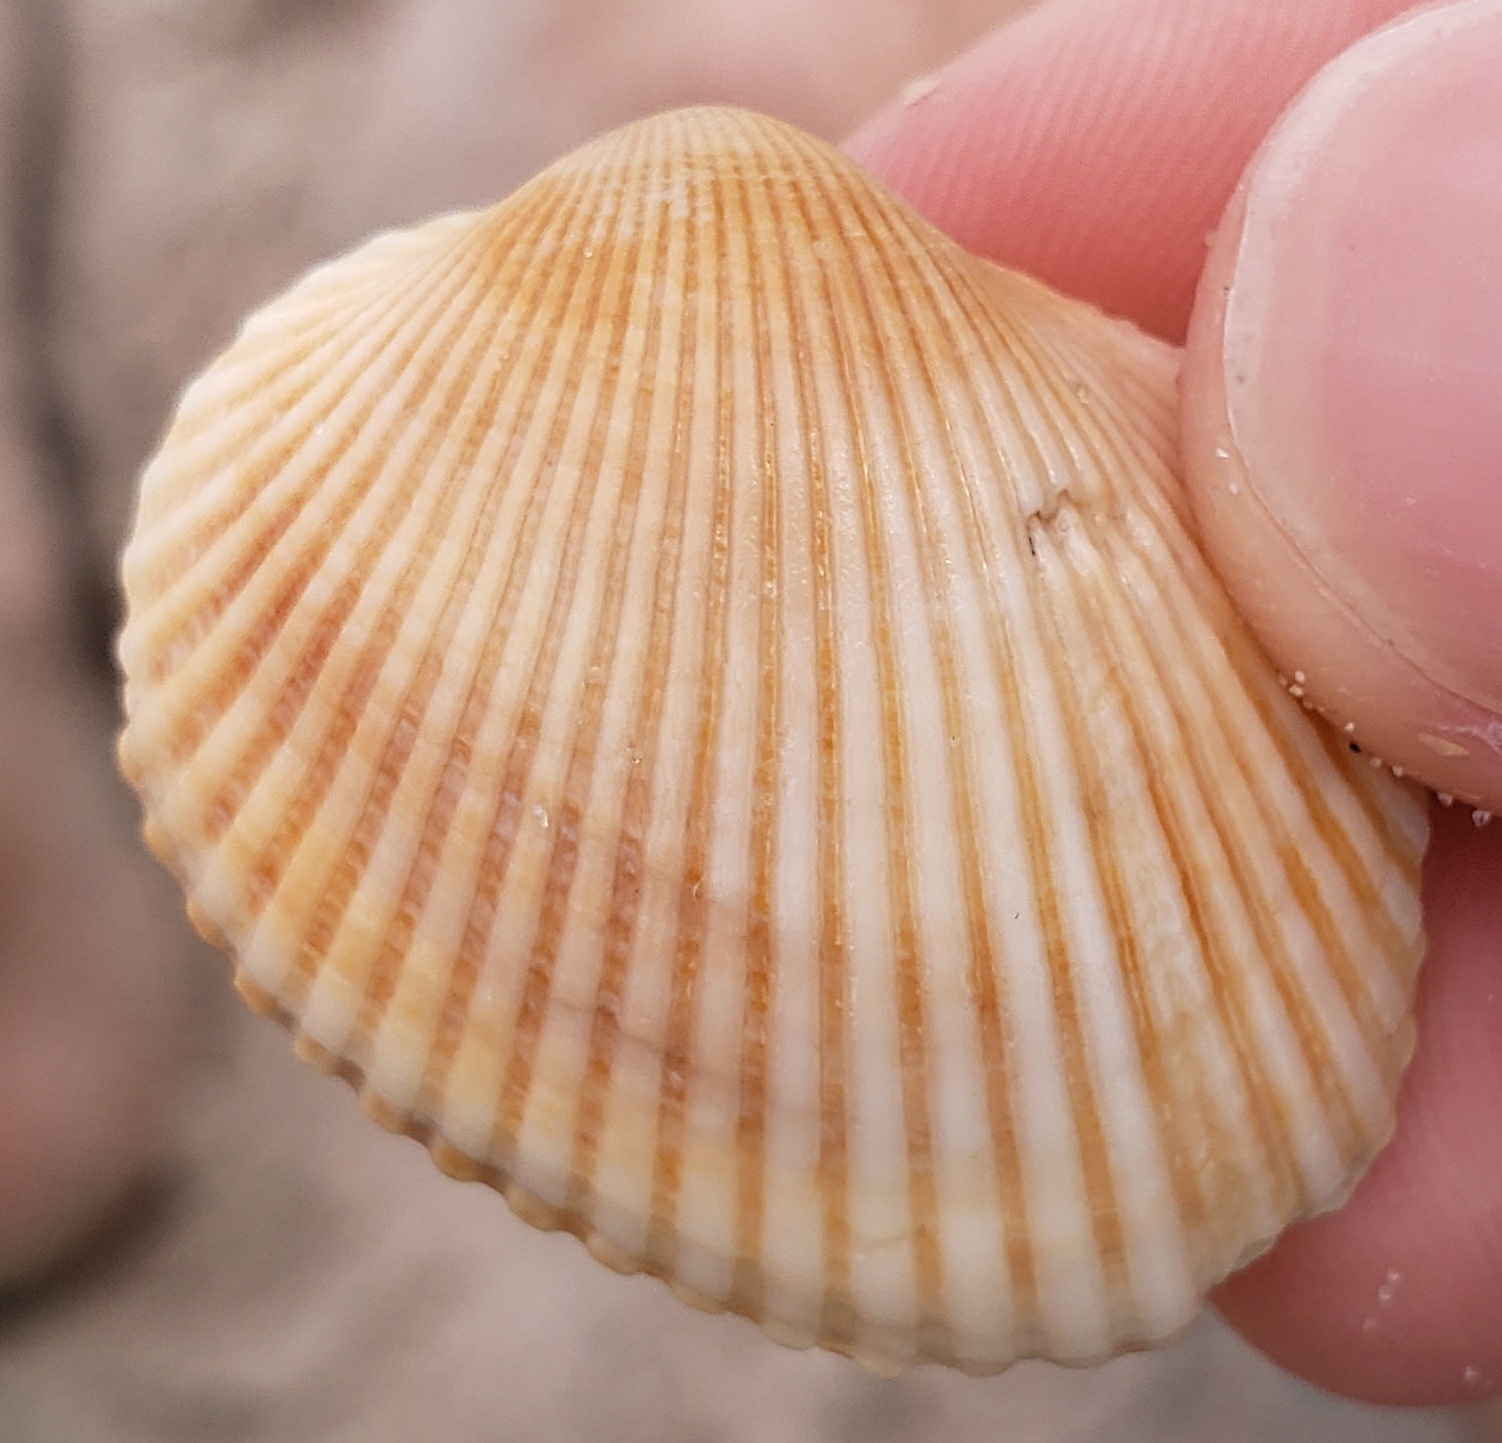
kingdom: Animalia
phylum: Mollusca
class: Bivalvia
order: Arcida
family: Arcidae
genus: Lunarca
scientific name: Lunarca ovalis
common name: Blood ark
